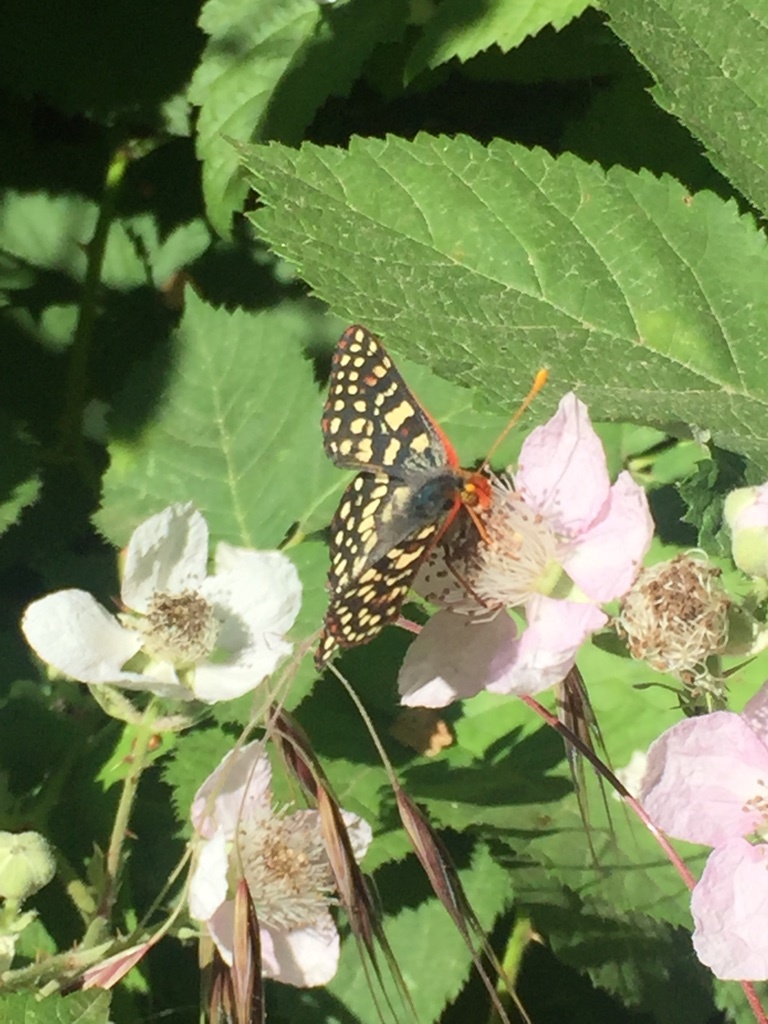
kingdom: Animalia
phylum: Arthropoda
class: Insecta
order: Lepidoptera
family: Nymphalidae
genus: Occidryas
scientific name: Occidryas chalcedona
